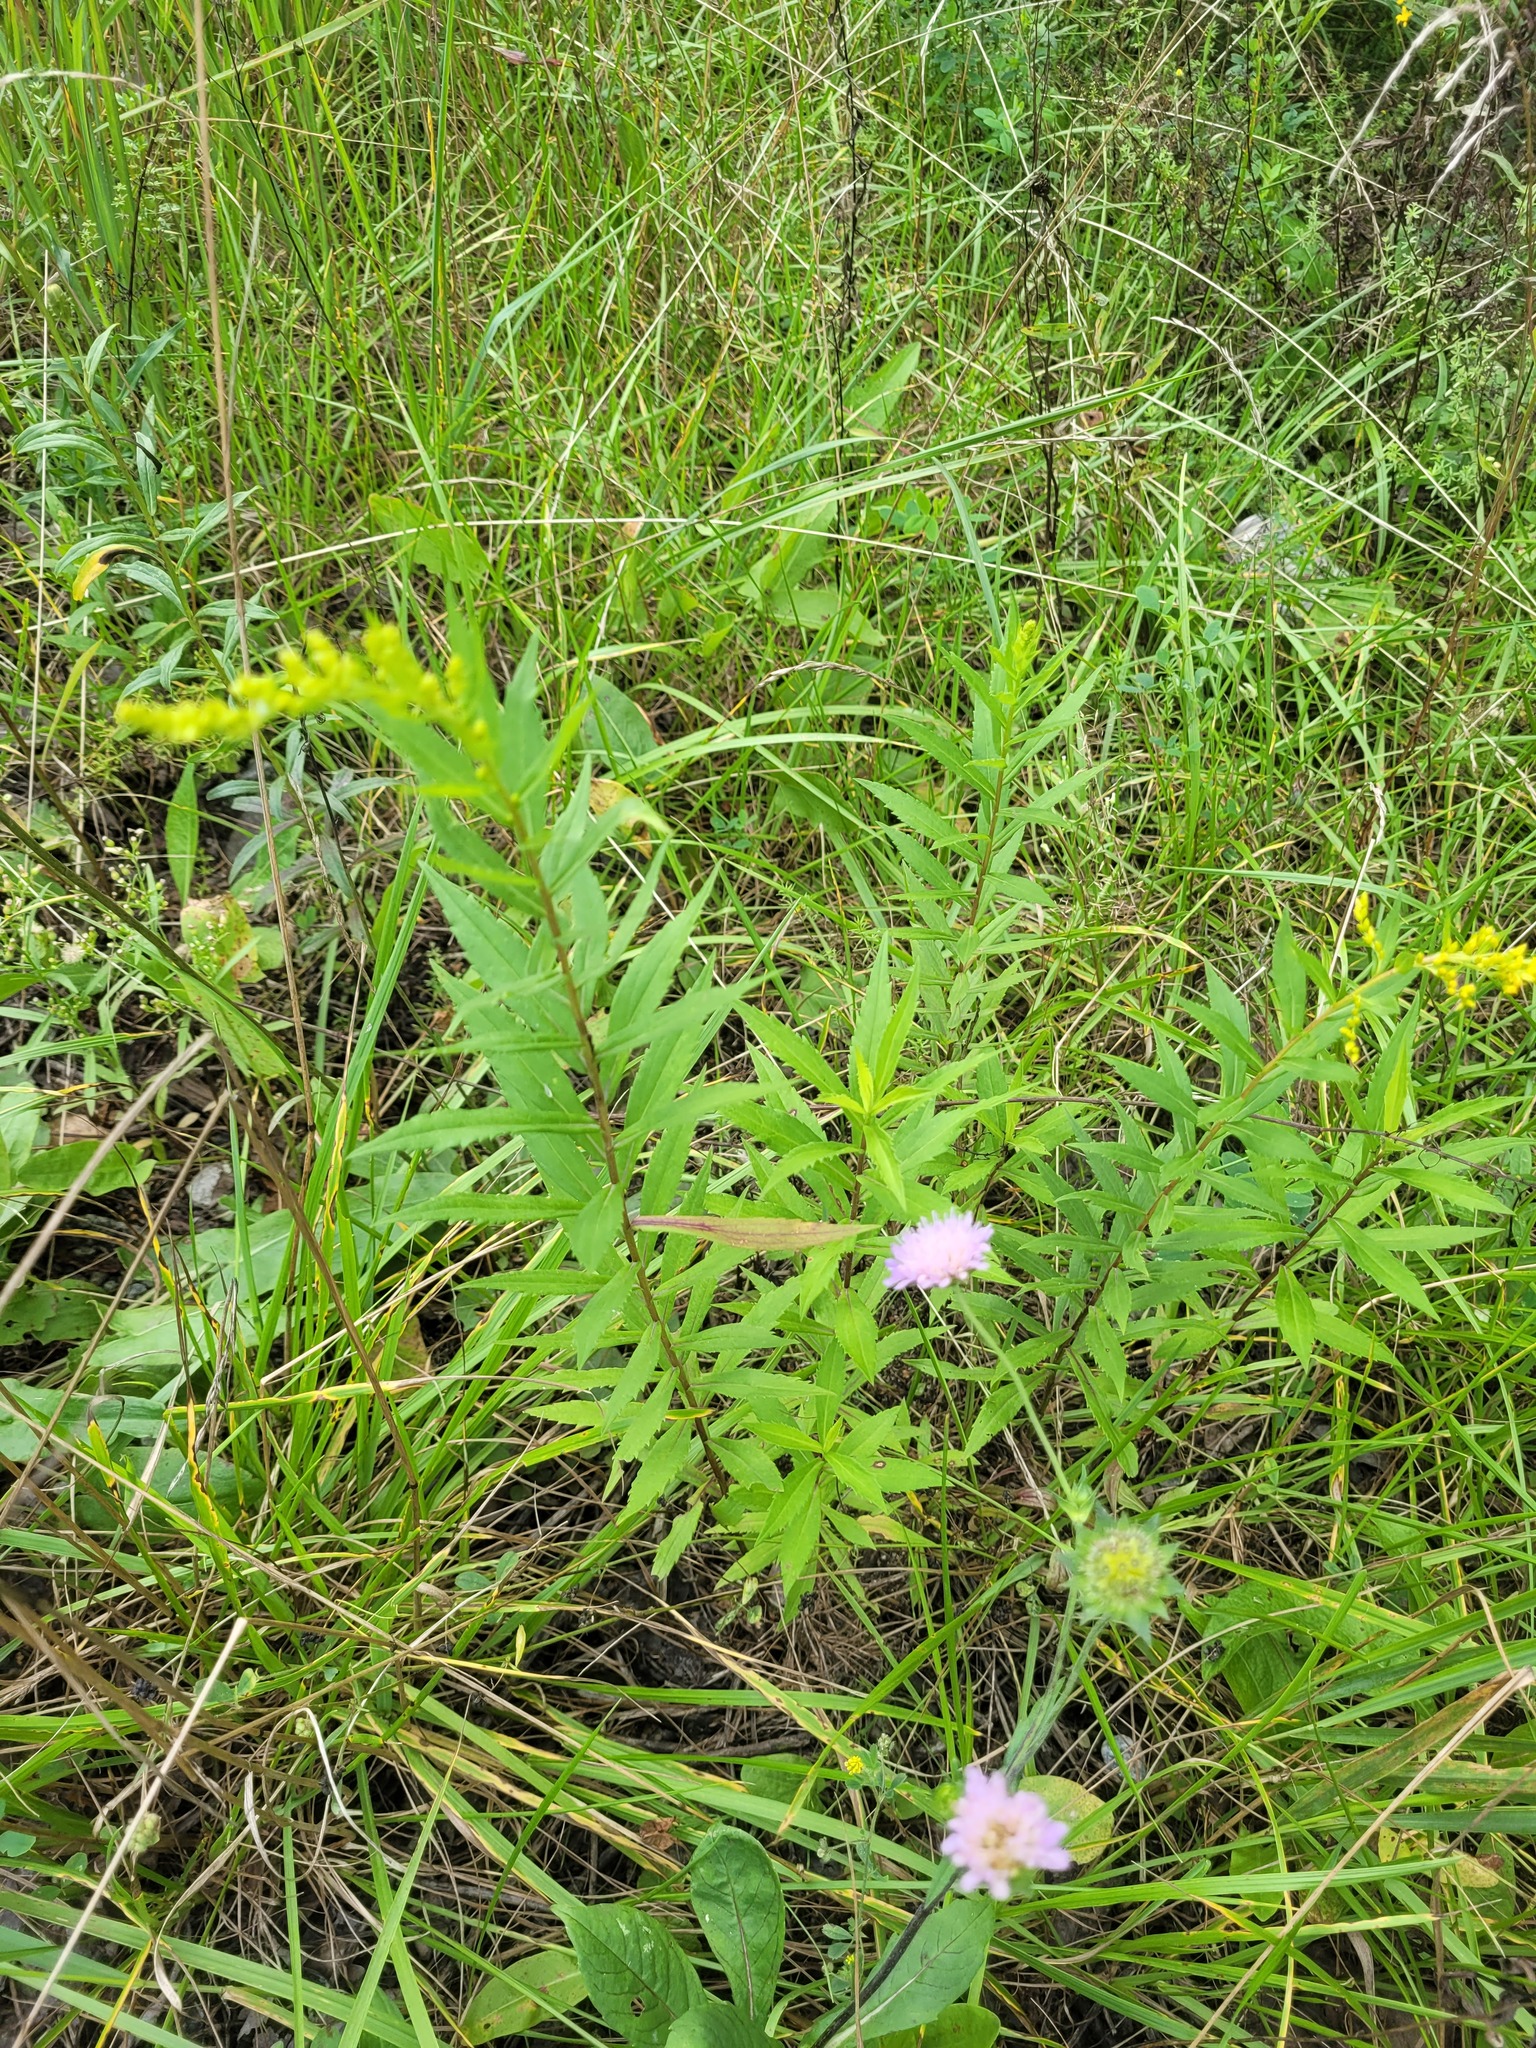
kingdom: Plantae
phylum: Tracheophyta
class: Magnoliopsida
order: Asterales
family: Asteraceae
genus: Solidago
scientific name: Solidago canadensis
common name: Canada goldenrod
